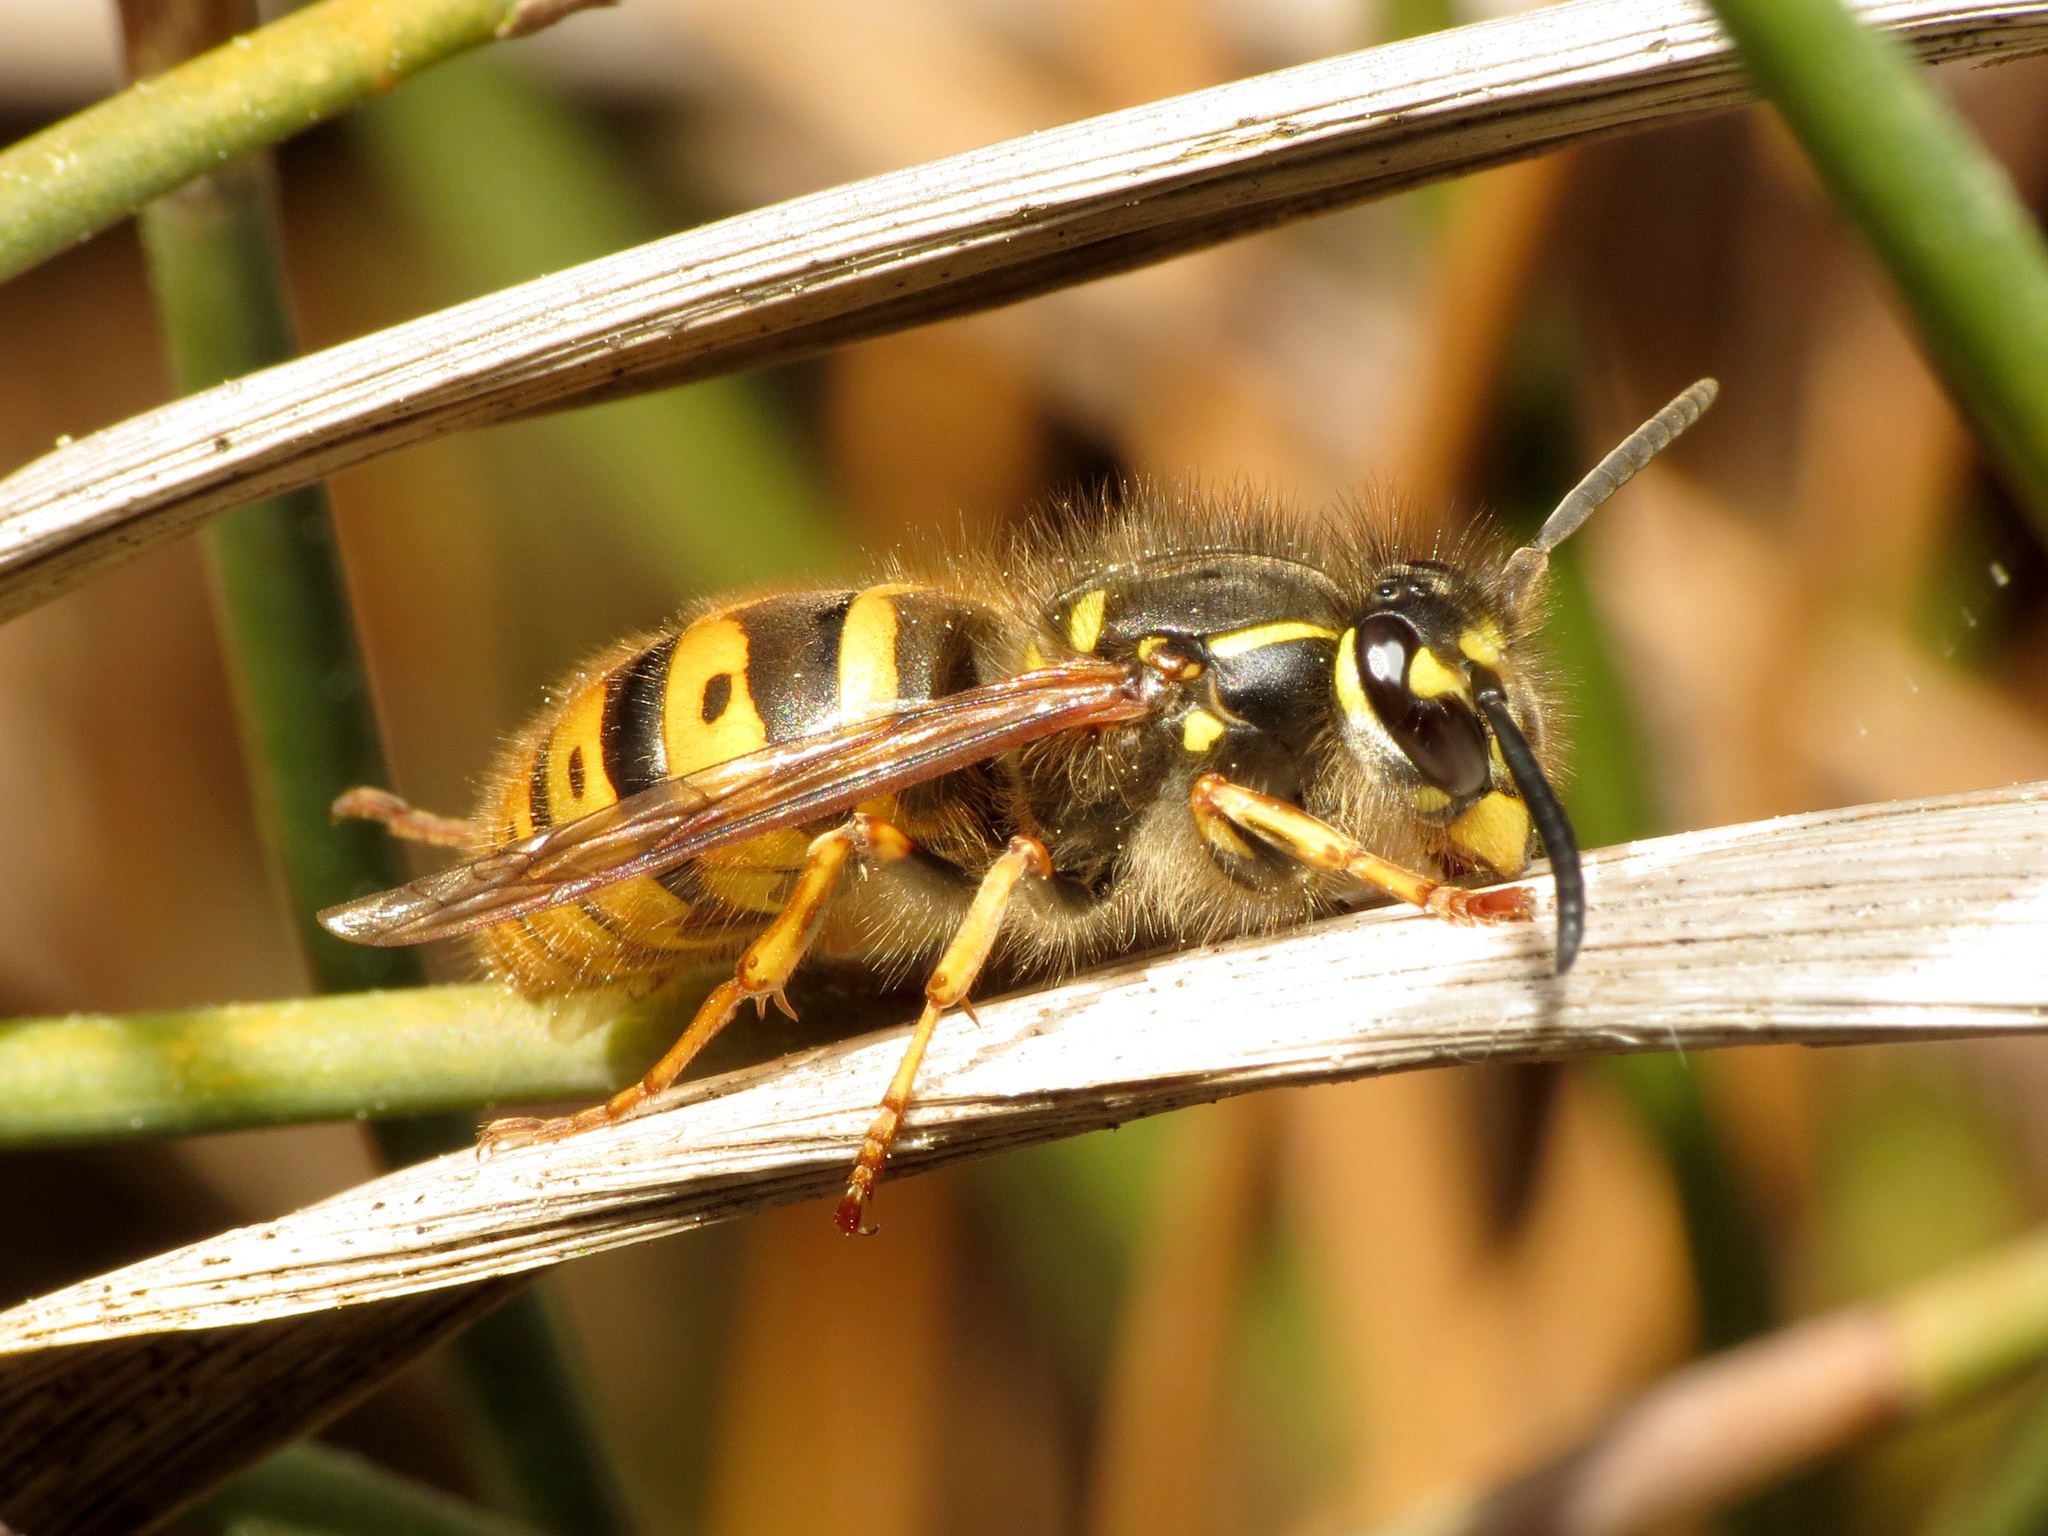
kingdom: Animalia
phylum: Arthropoda
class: Insecta
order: Hymenoptera
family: Vespidae
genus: Vespula
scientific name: Vespula vulgaris
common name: Common wasp
